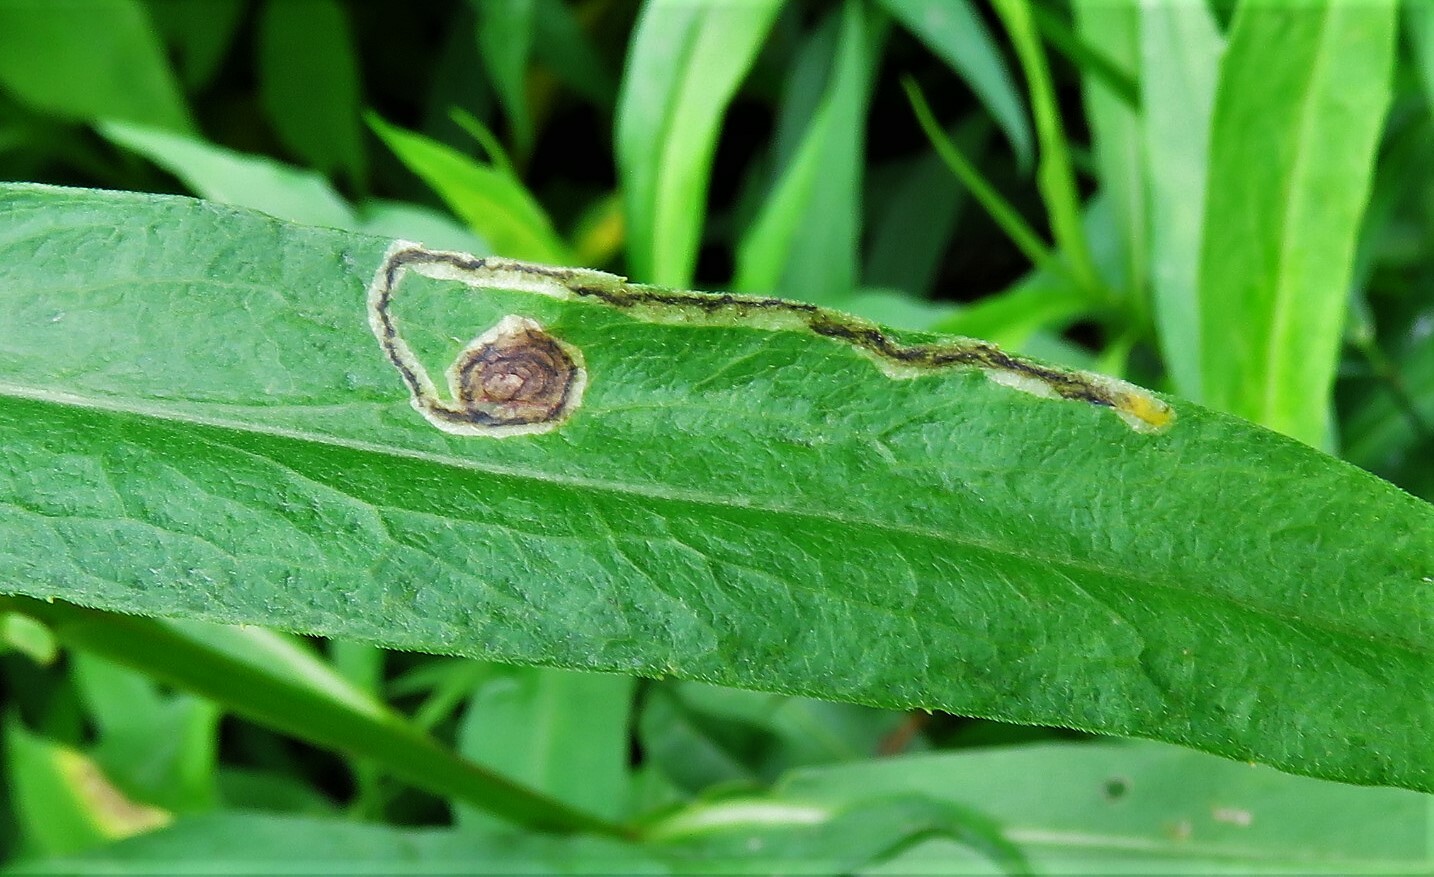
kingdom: Animalia
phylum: Arthropoda
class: Insecta
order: Diptera
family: Agromyzidae
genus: Liriomyza
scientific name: Liriomyza eupatorii
